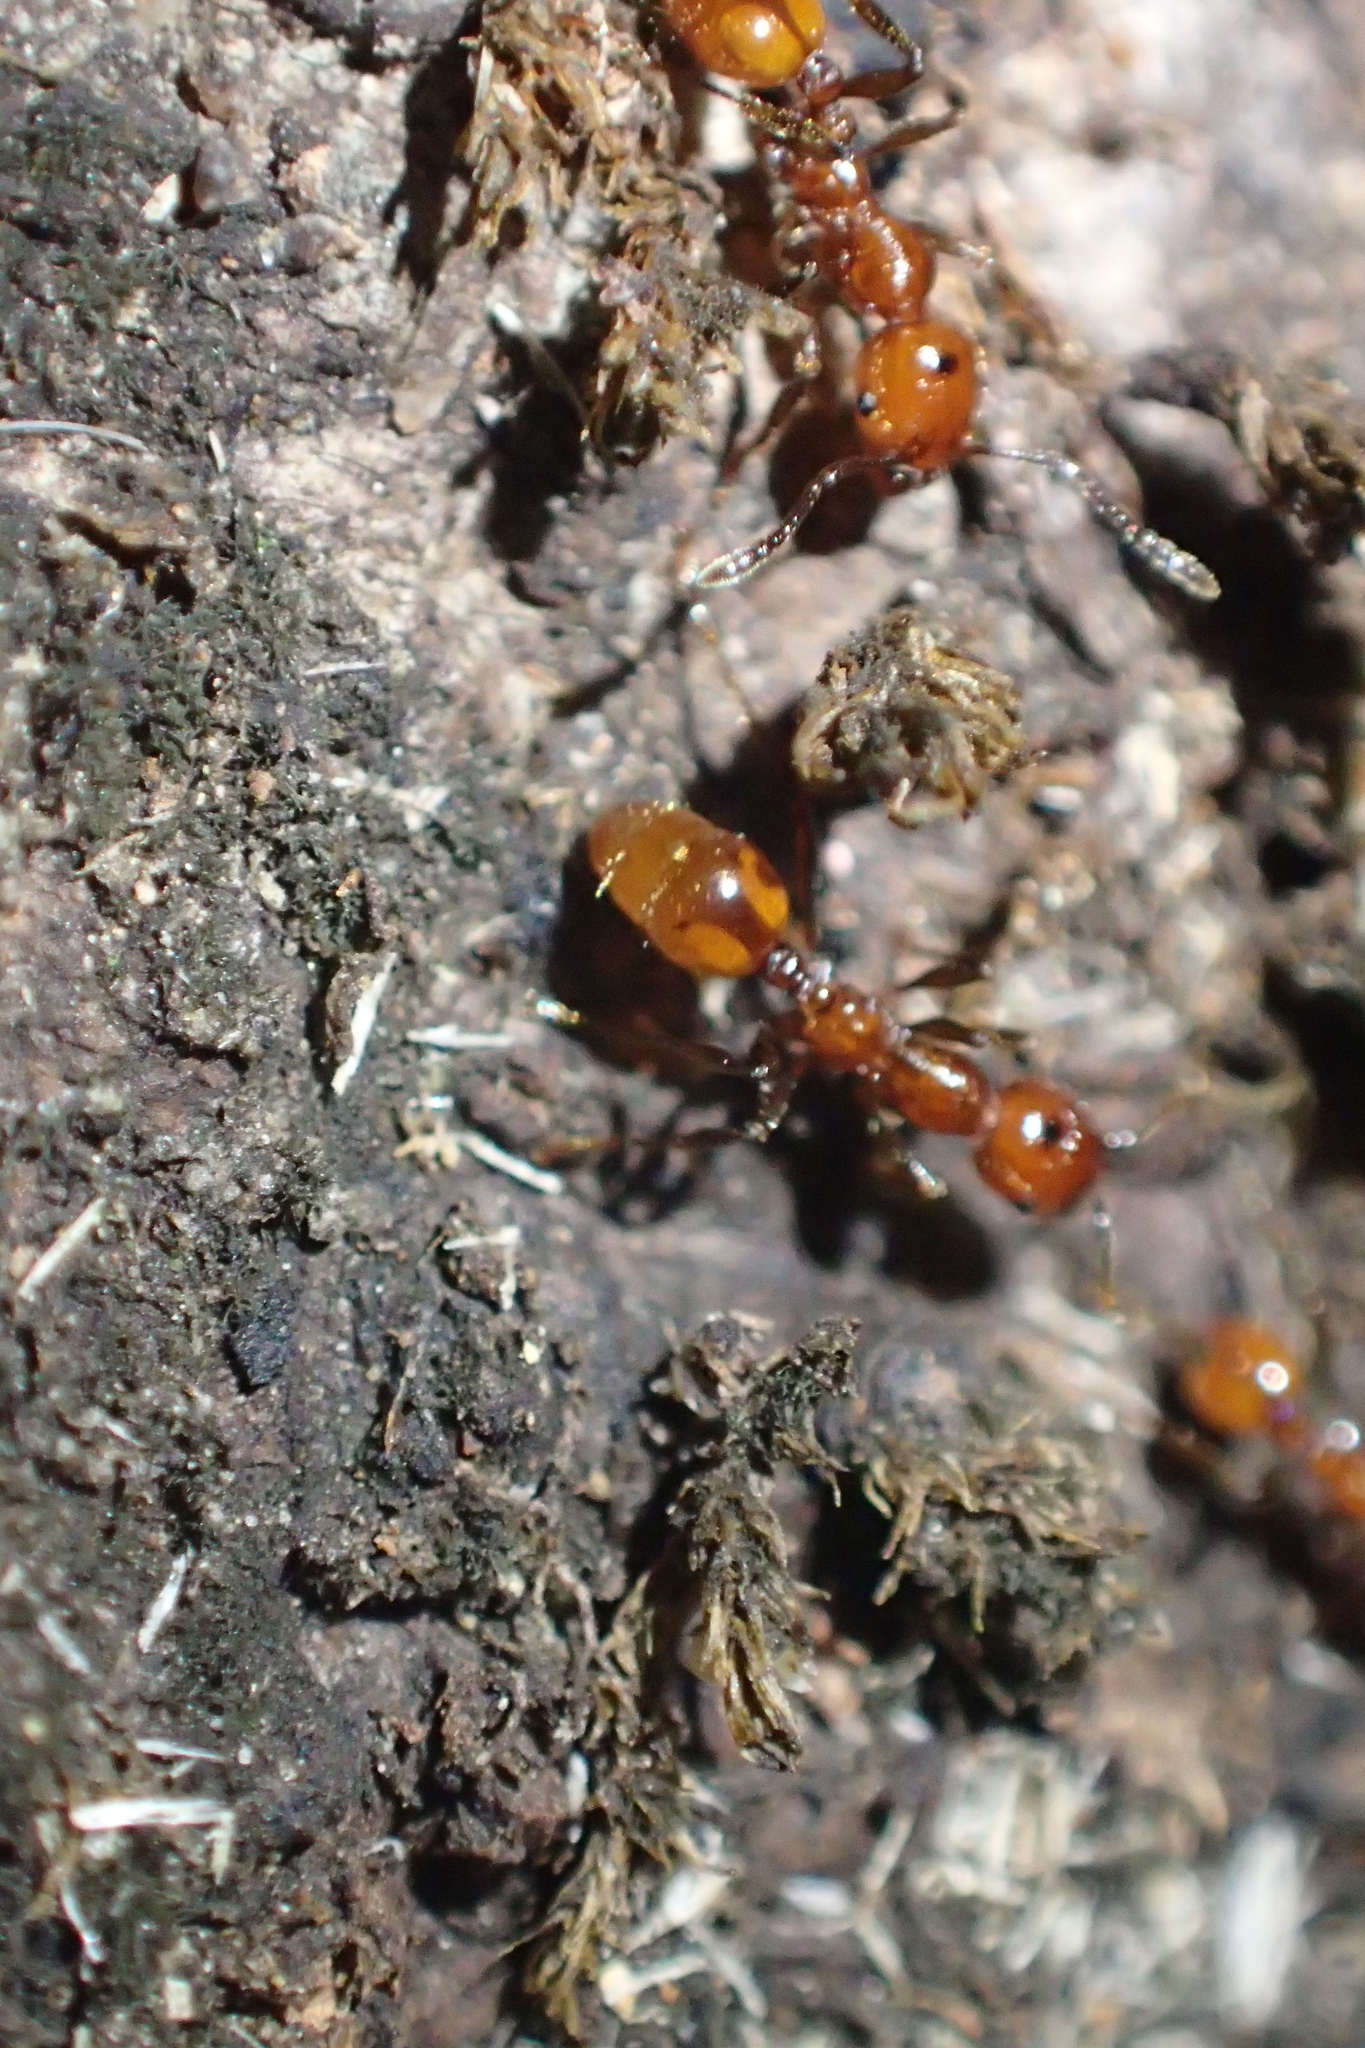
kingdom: Animalia
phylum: Arthropoda
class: Insecta
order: Hymenoptera
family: Formicidae
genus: Huberia
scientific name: Huberia striata
